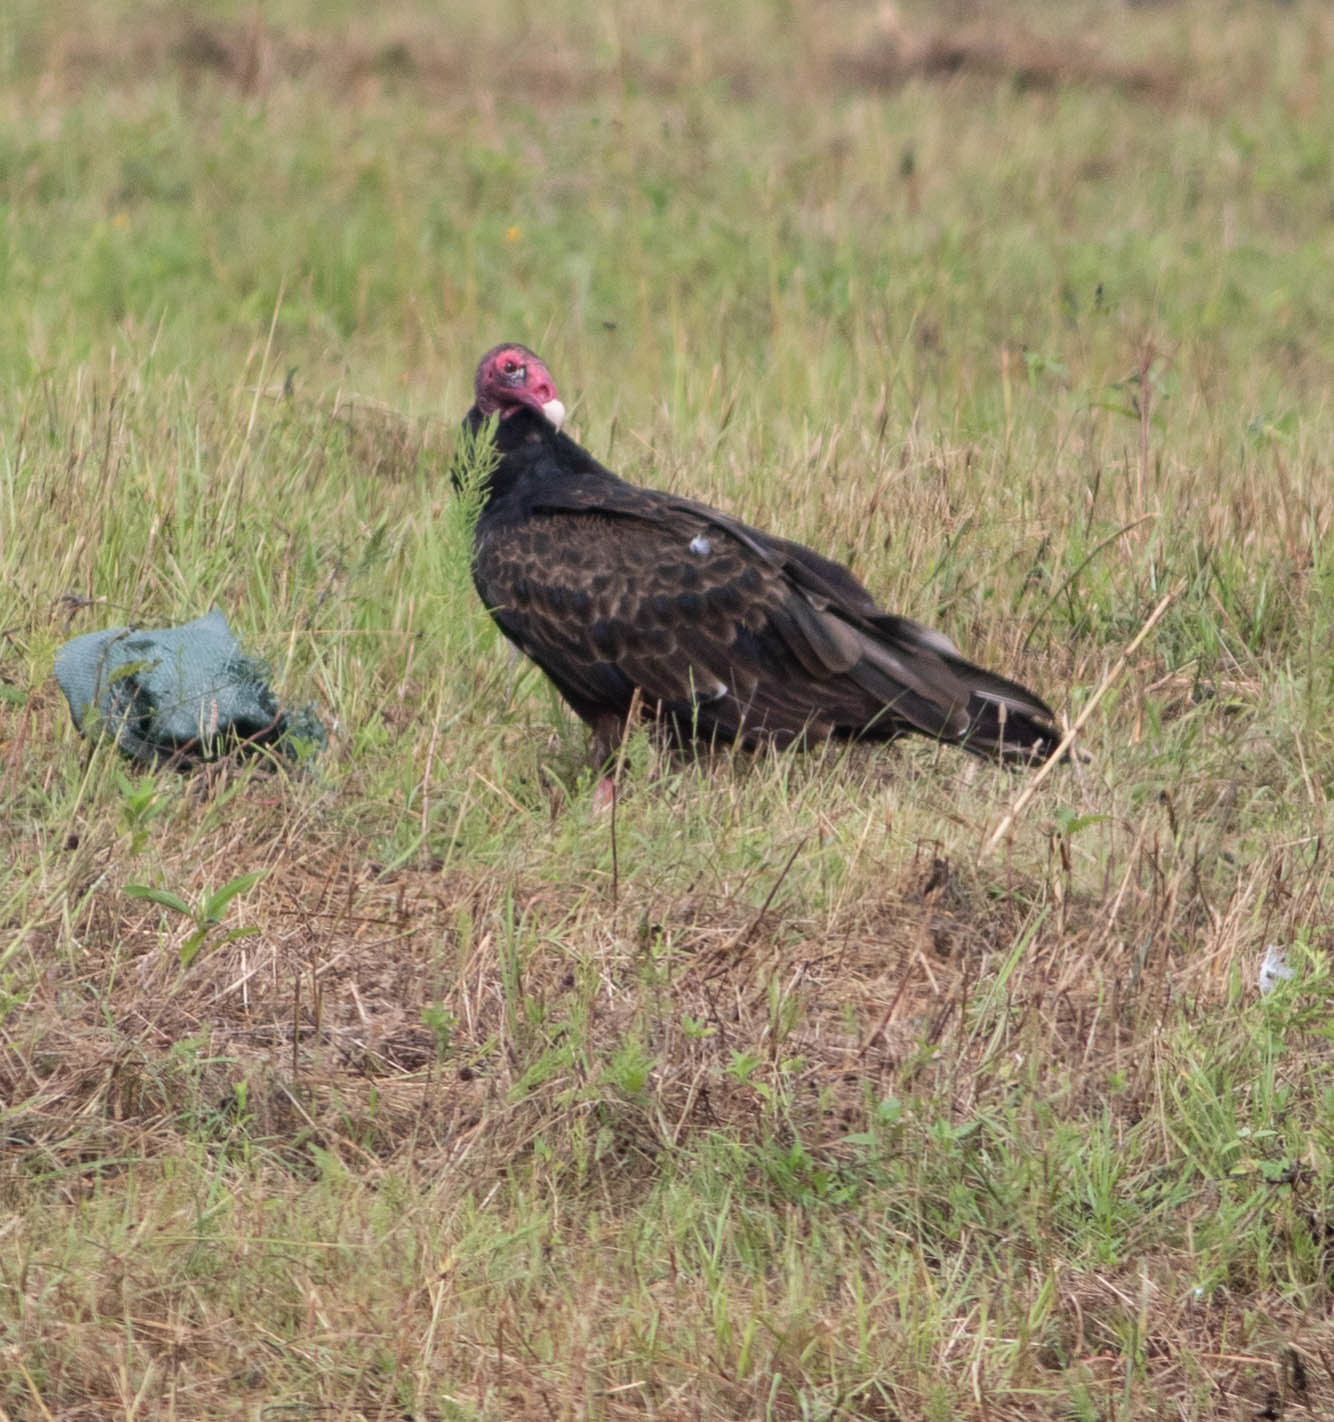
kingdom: Animalia
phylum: Chordata
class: Aves
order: Accipitriformes
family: Cathartidae
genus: Cathartes
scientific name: Cathartes aura
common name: Turkey vulture
